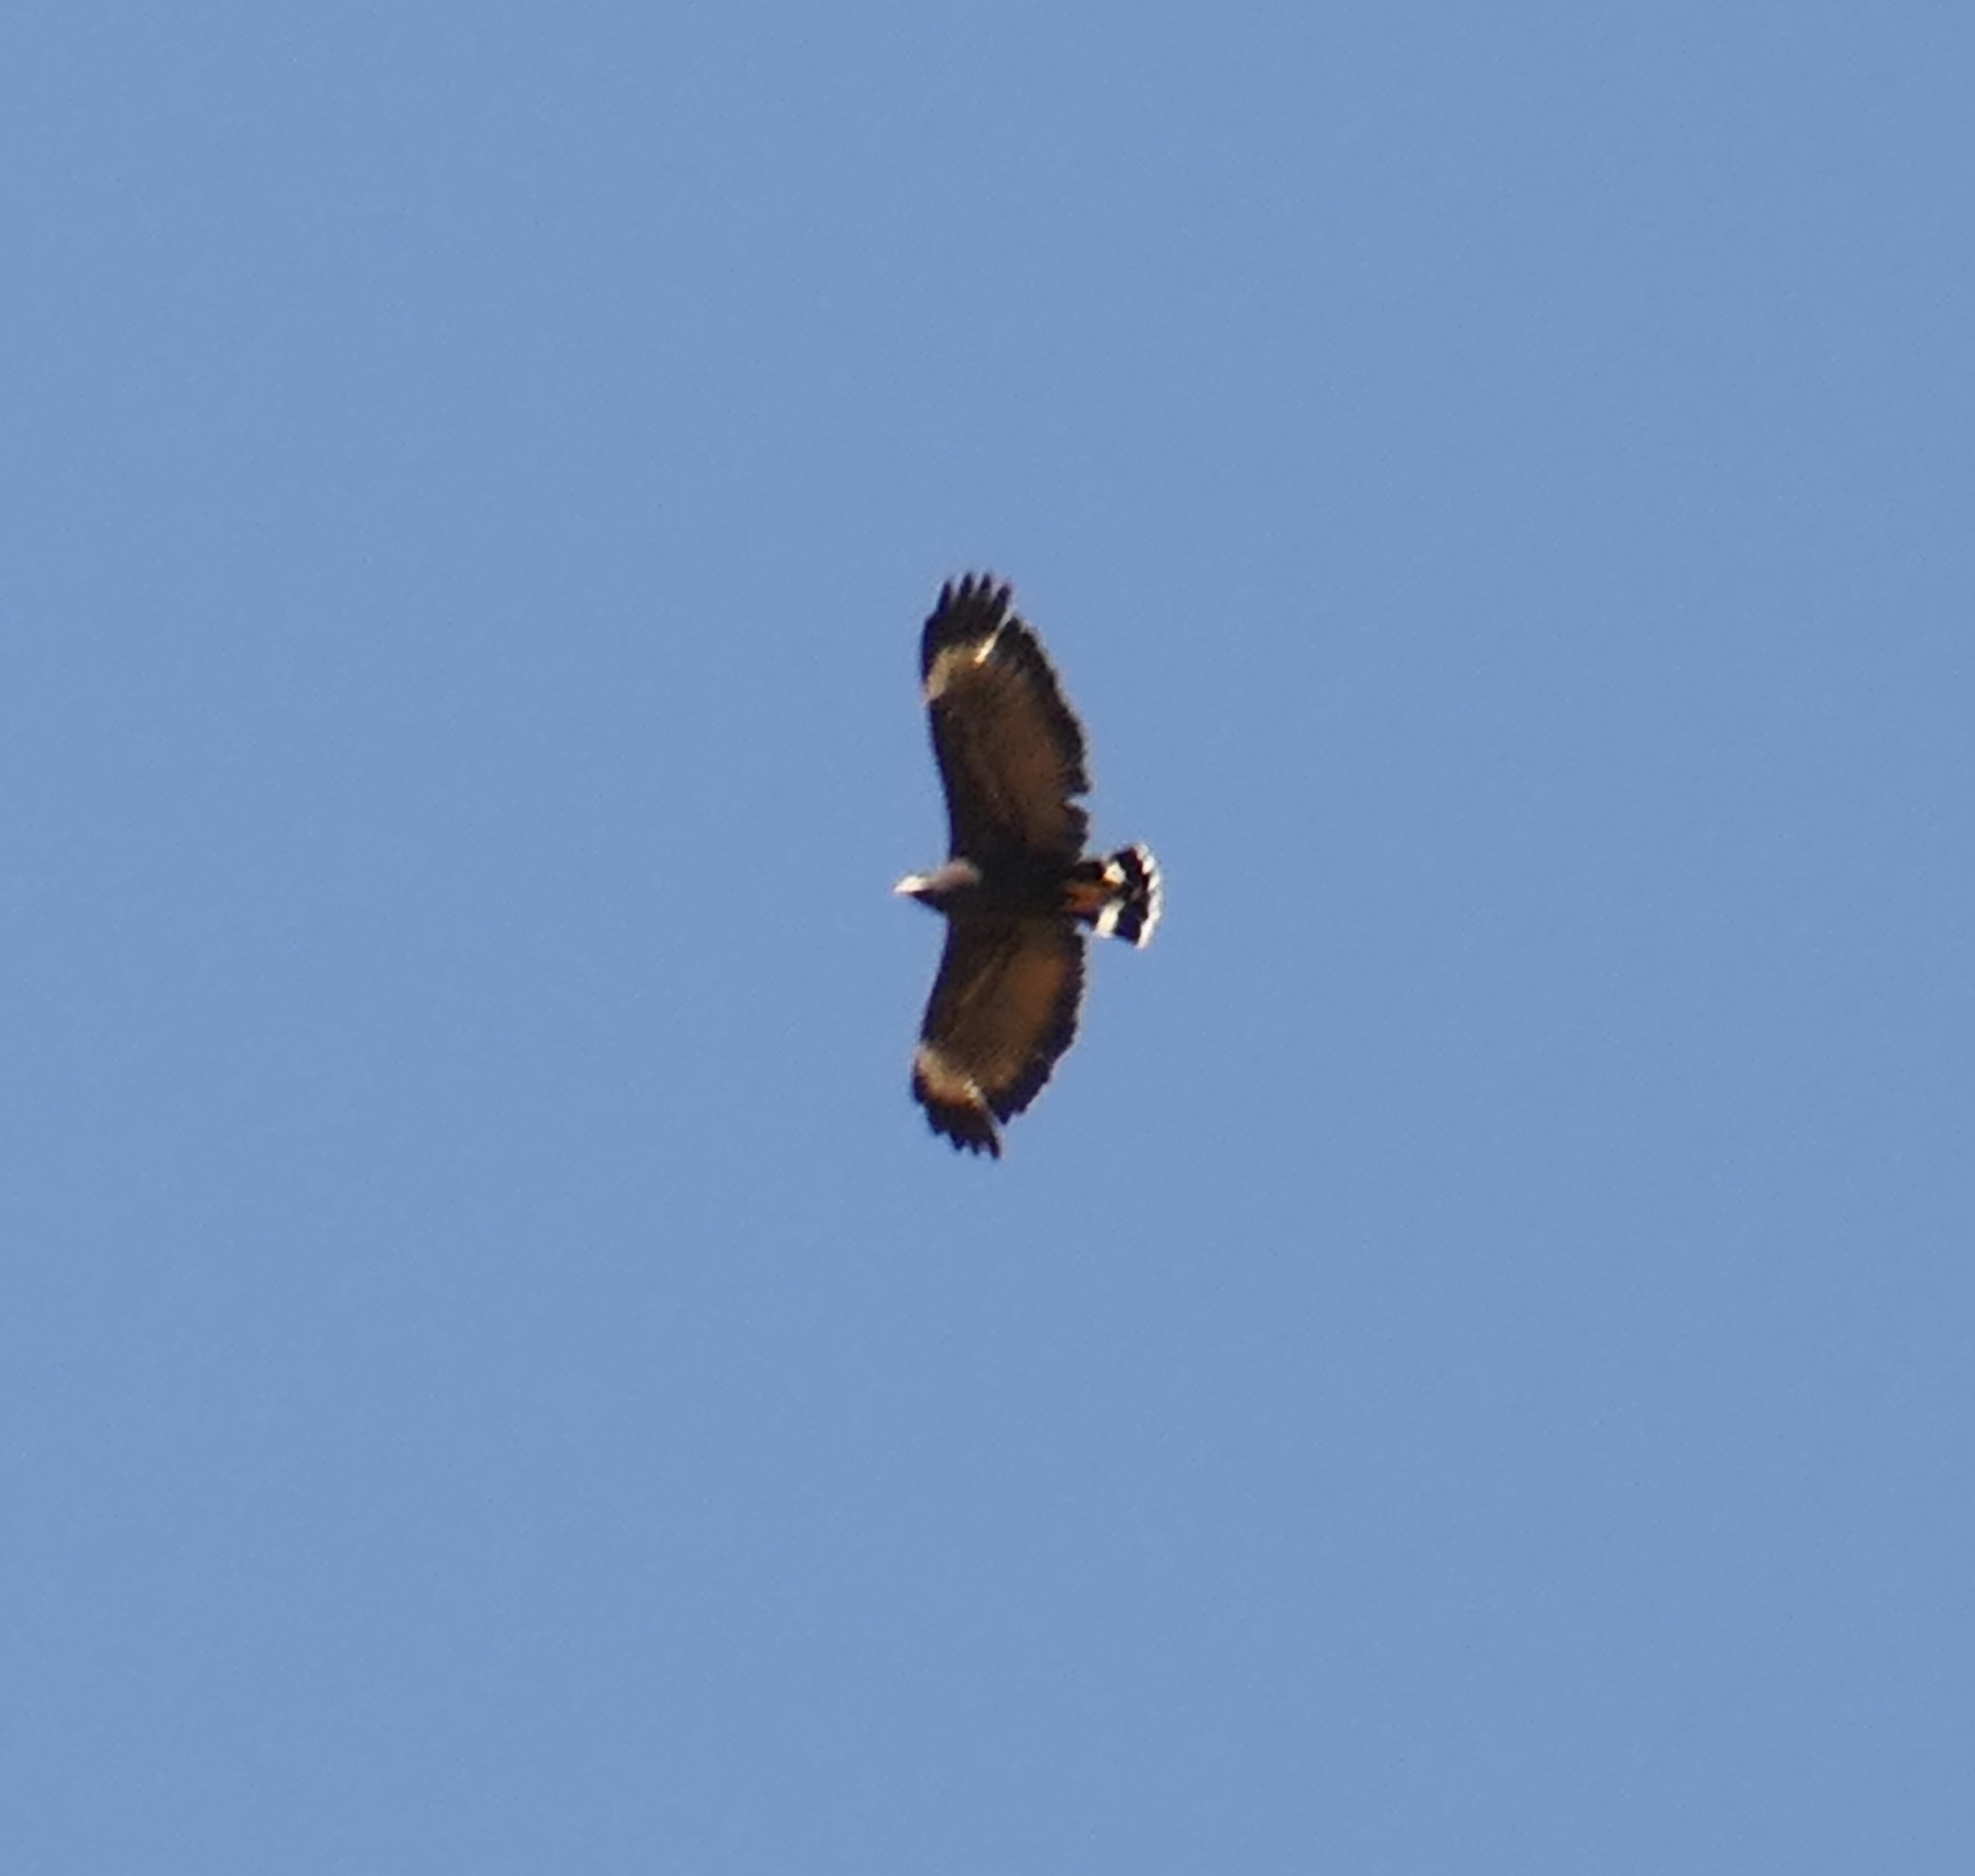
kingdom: Animalia
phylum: Chordata
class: Aves
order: Accipitriformes
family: Accipitridae
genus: Buteogallus
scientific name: Buteogallus anthracinus
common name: Common black hawk
